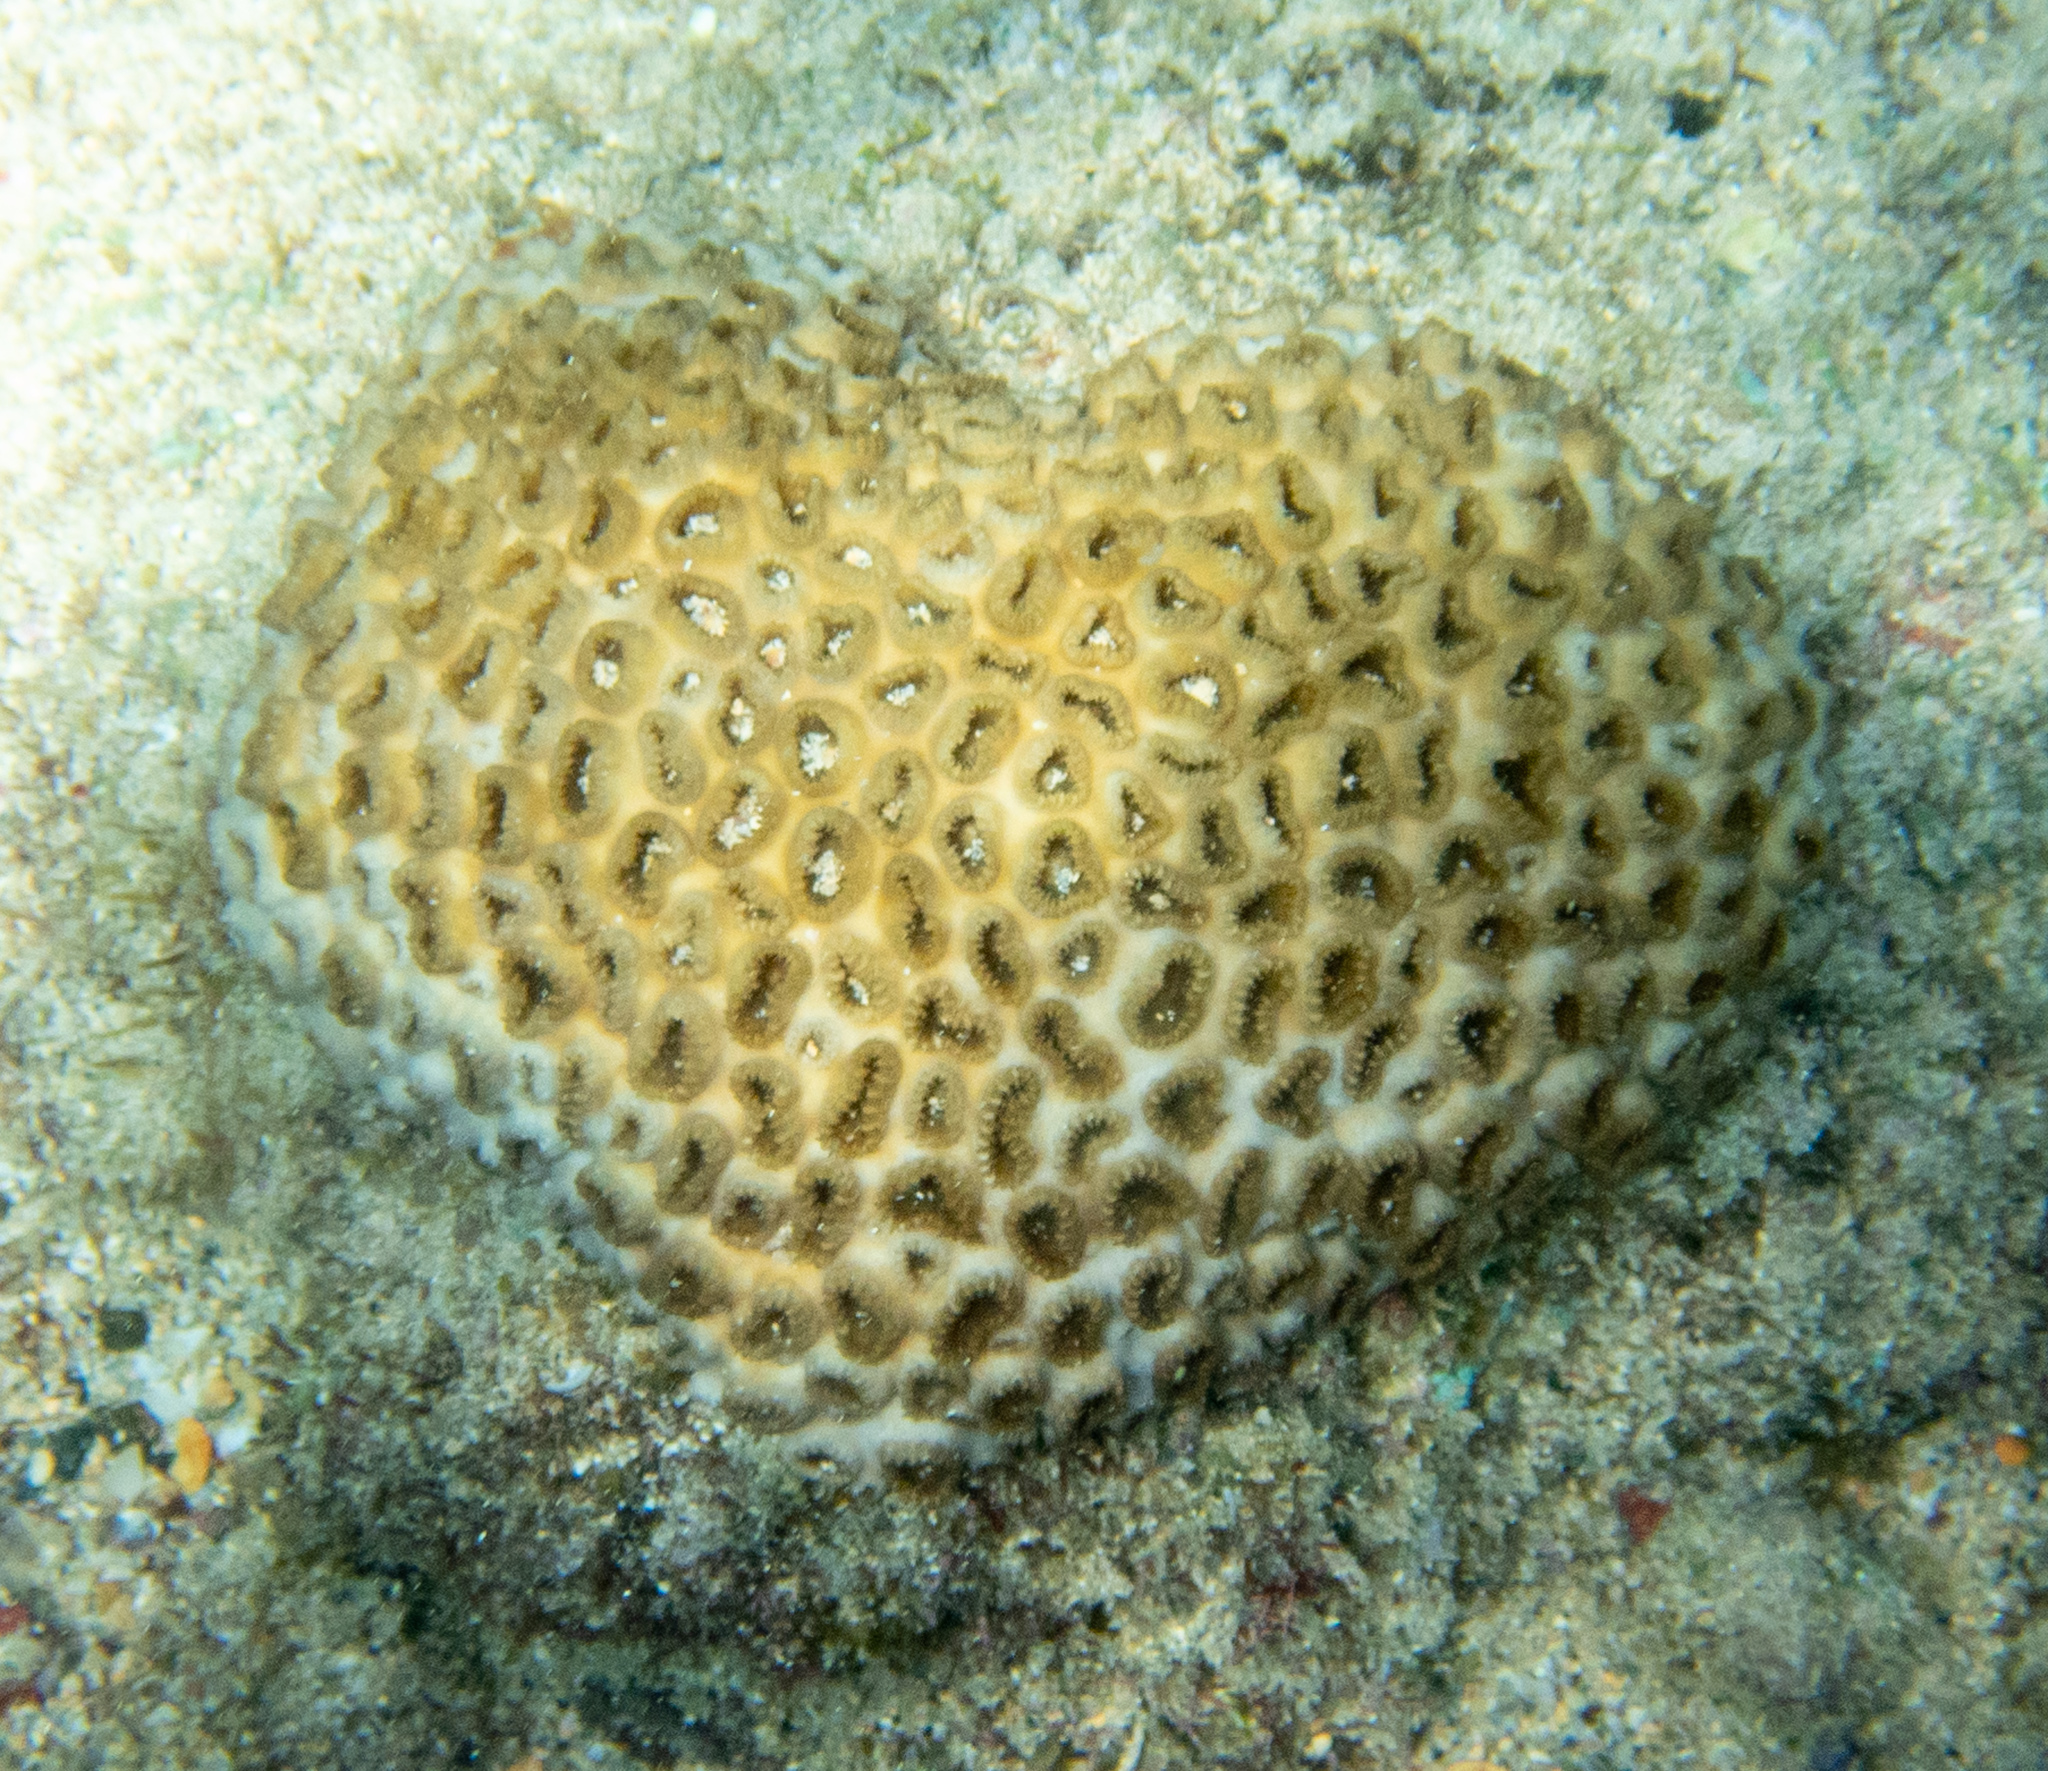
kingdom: Animalia
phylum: Cnidaria
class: Anthozoa
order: Zoantharia
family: Sphenopidae
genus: Palythoa
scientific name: Palythoa tuberculosa
